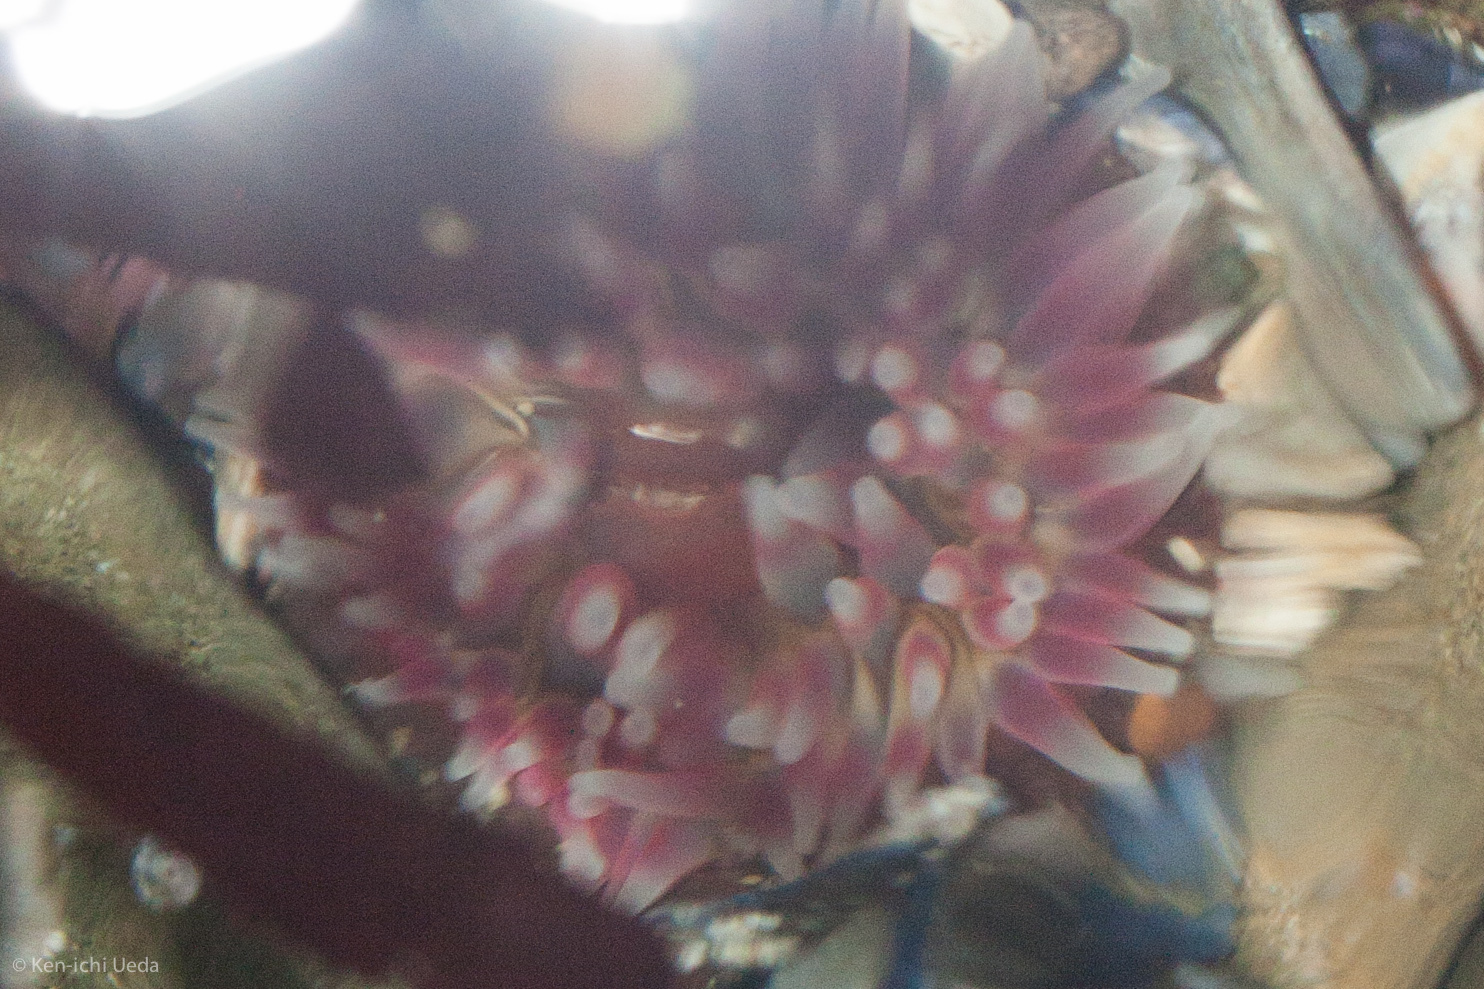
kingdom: Animalia
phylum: Cnidaria
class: Anthozoa
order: Actiniaria
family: Actiniidae
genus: Urticina
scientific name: Urticina clandestina
